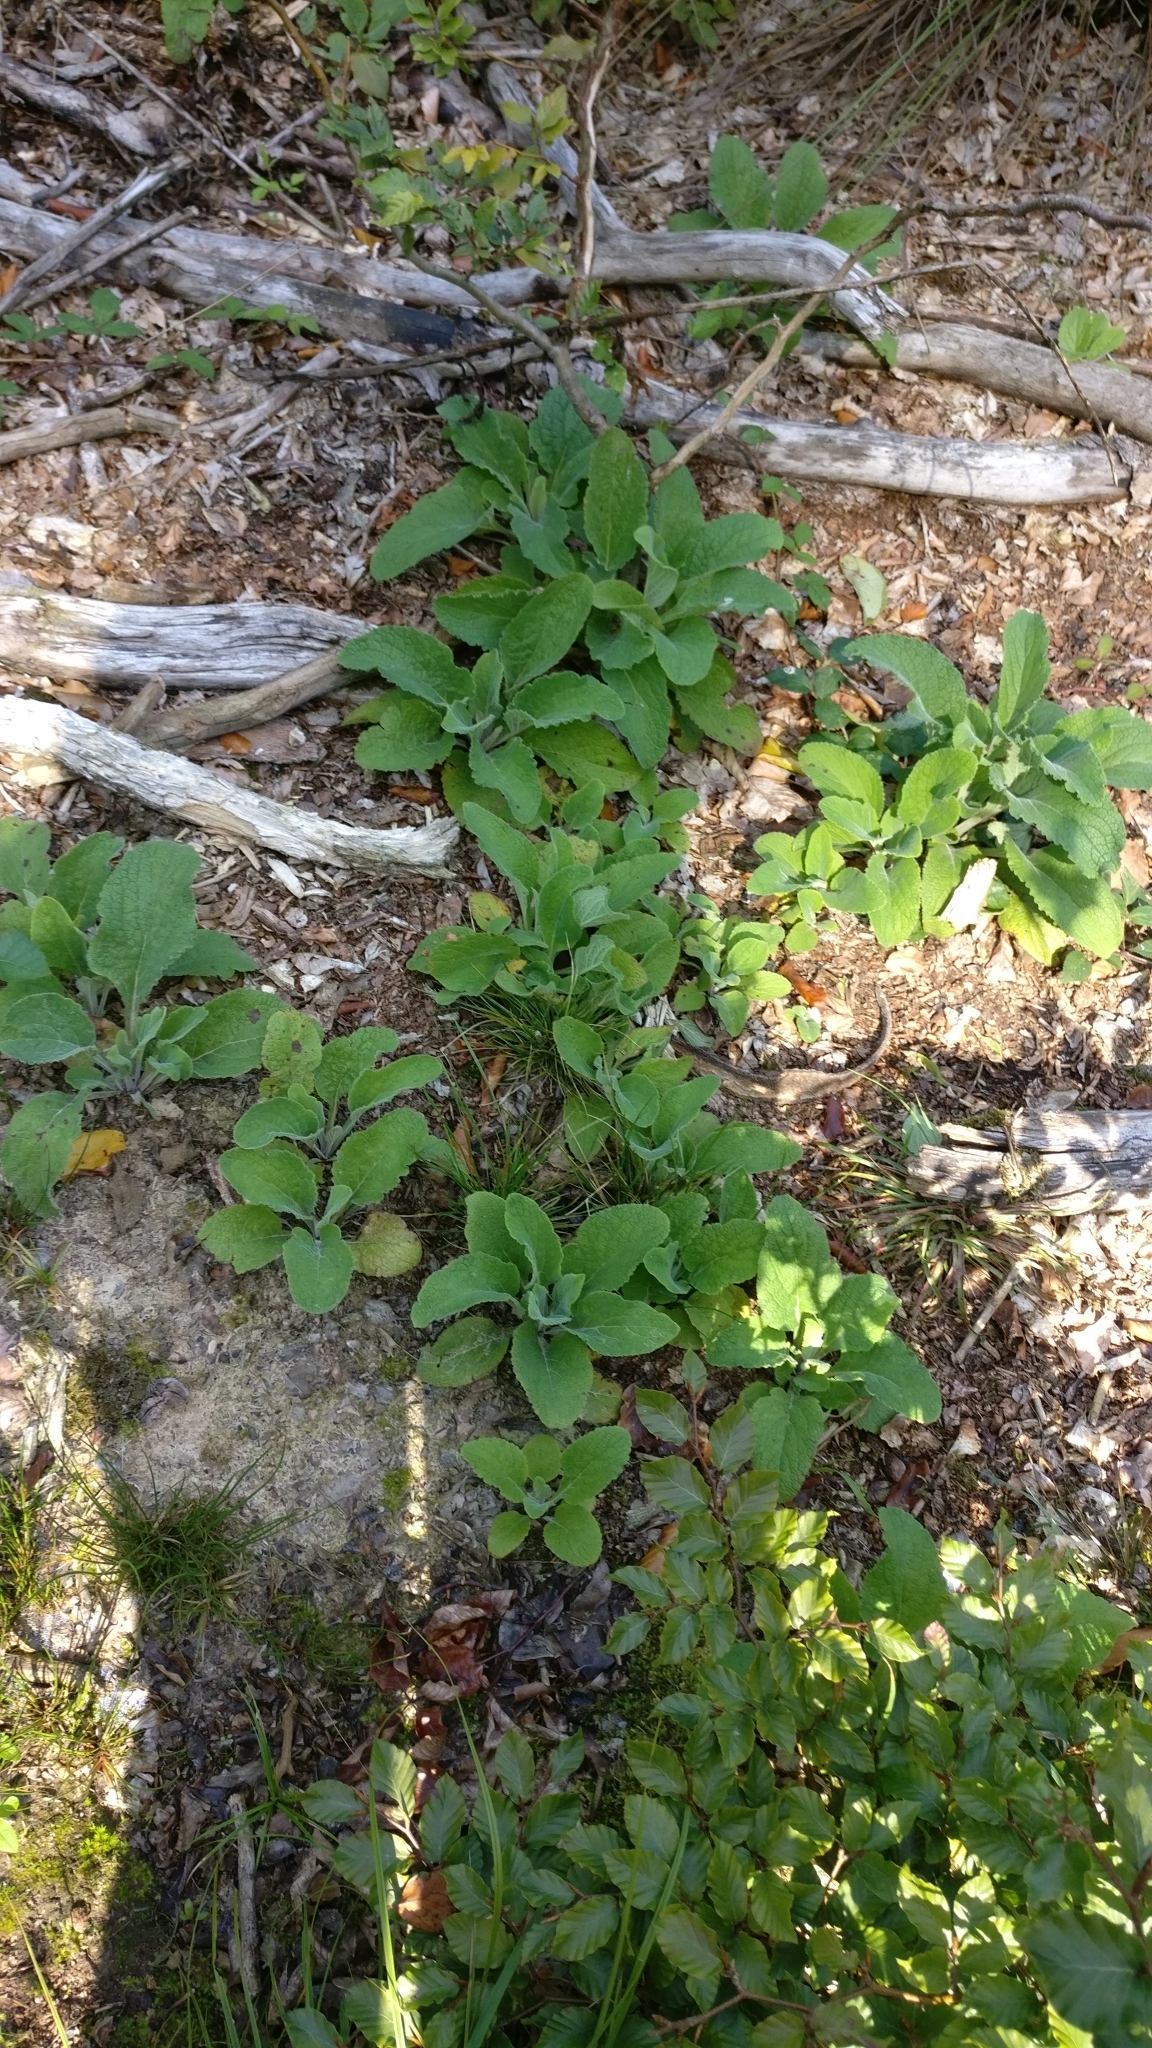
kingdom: Plantae
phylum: Tracheophyta
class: Magnoliopsida
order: Lamiales
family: Plantaginaceae
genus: Digitalis
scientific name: Digitalis purpurea
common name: Foxglove
